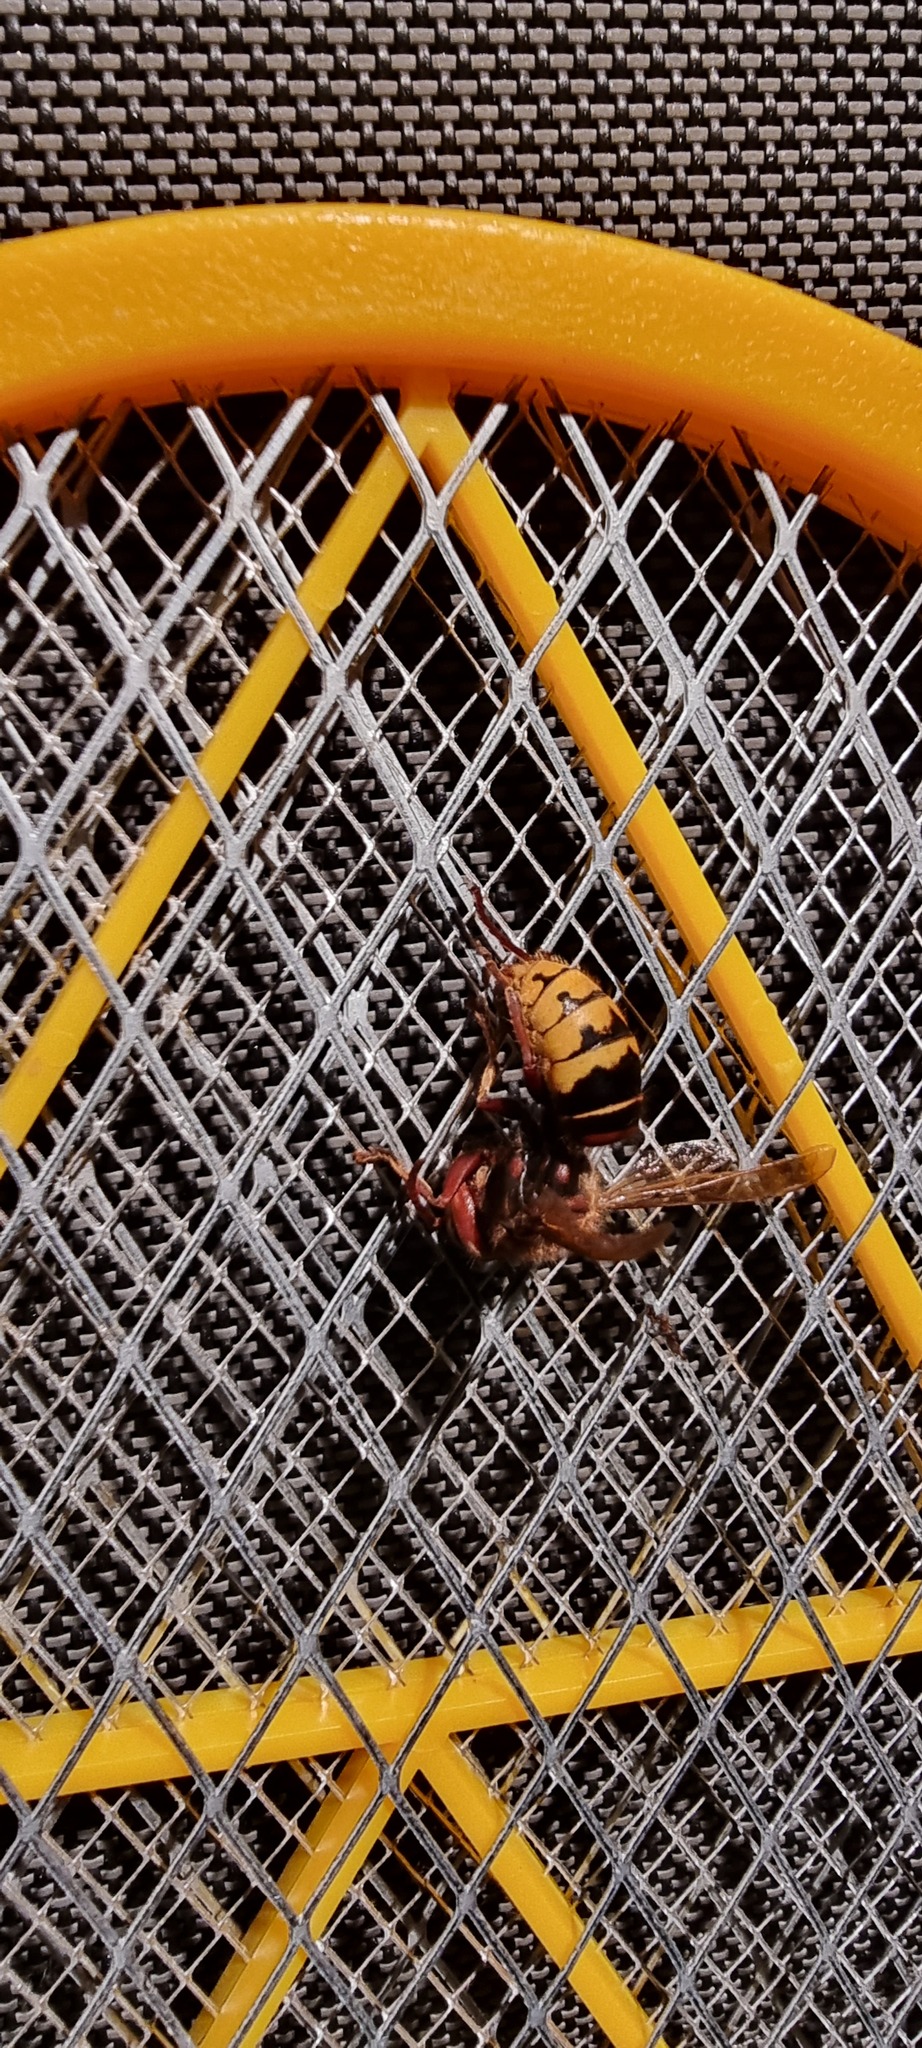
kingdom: Animalia
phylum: Arthropoda
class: Insecta
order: Hymenoptera
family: Vespidae
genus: Vespa
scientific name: Vespa crabro
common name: Hornet
